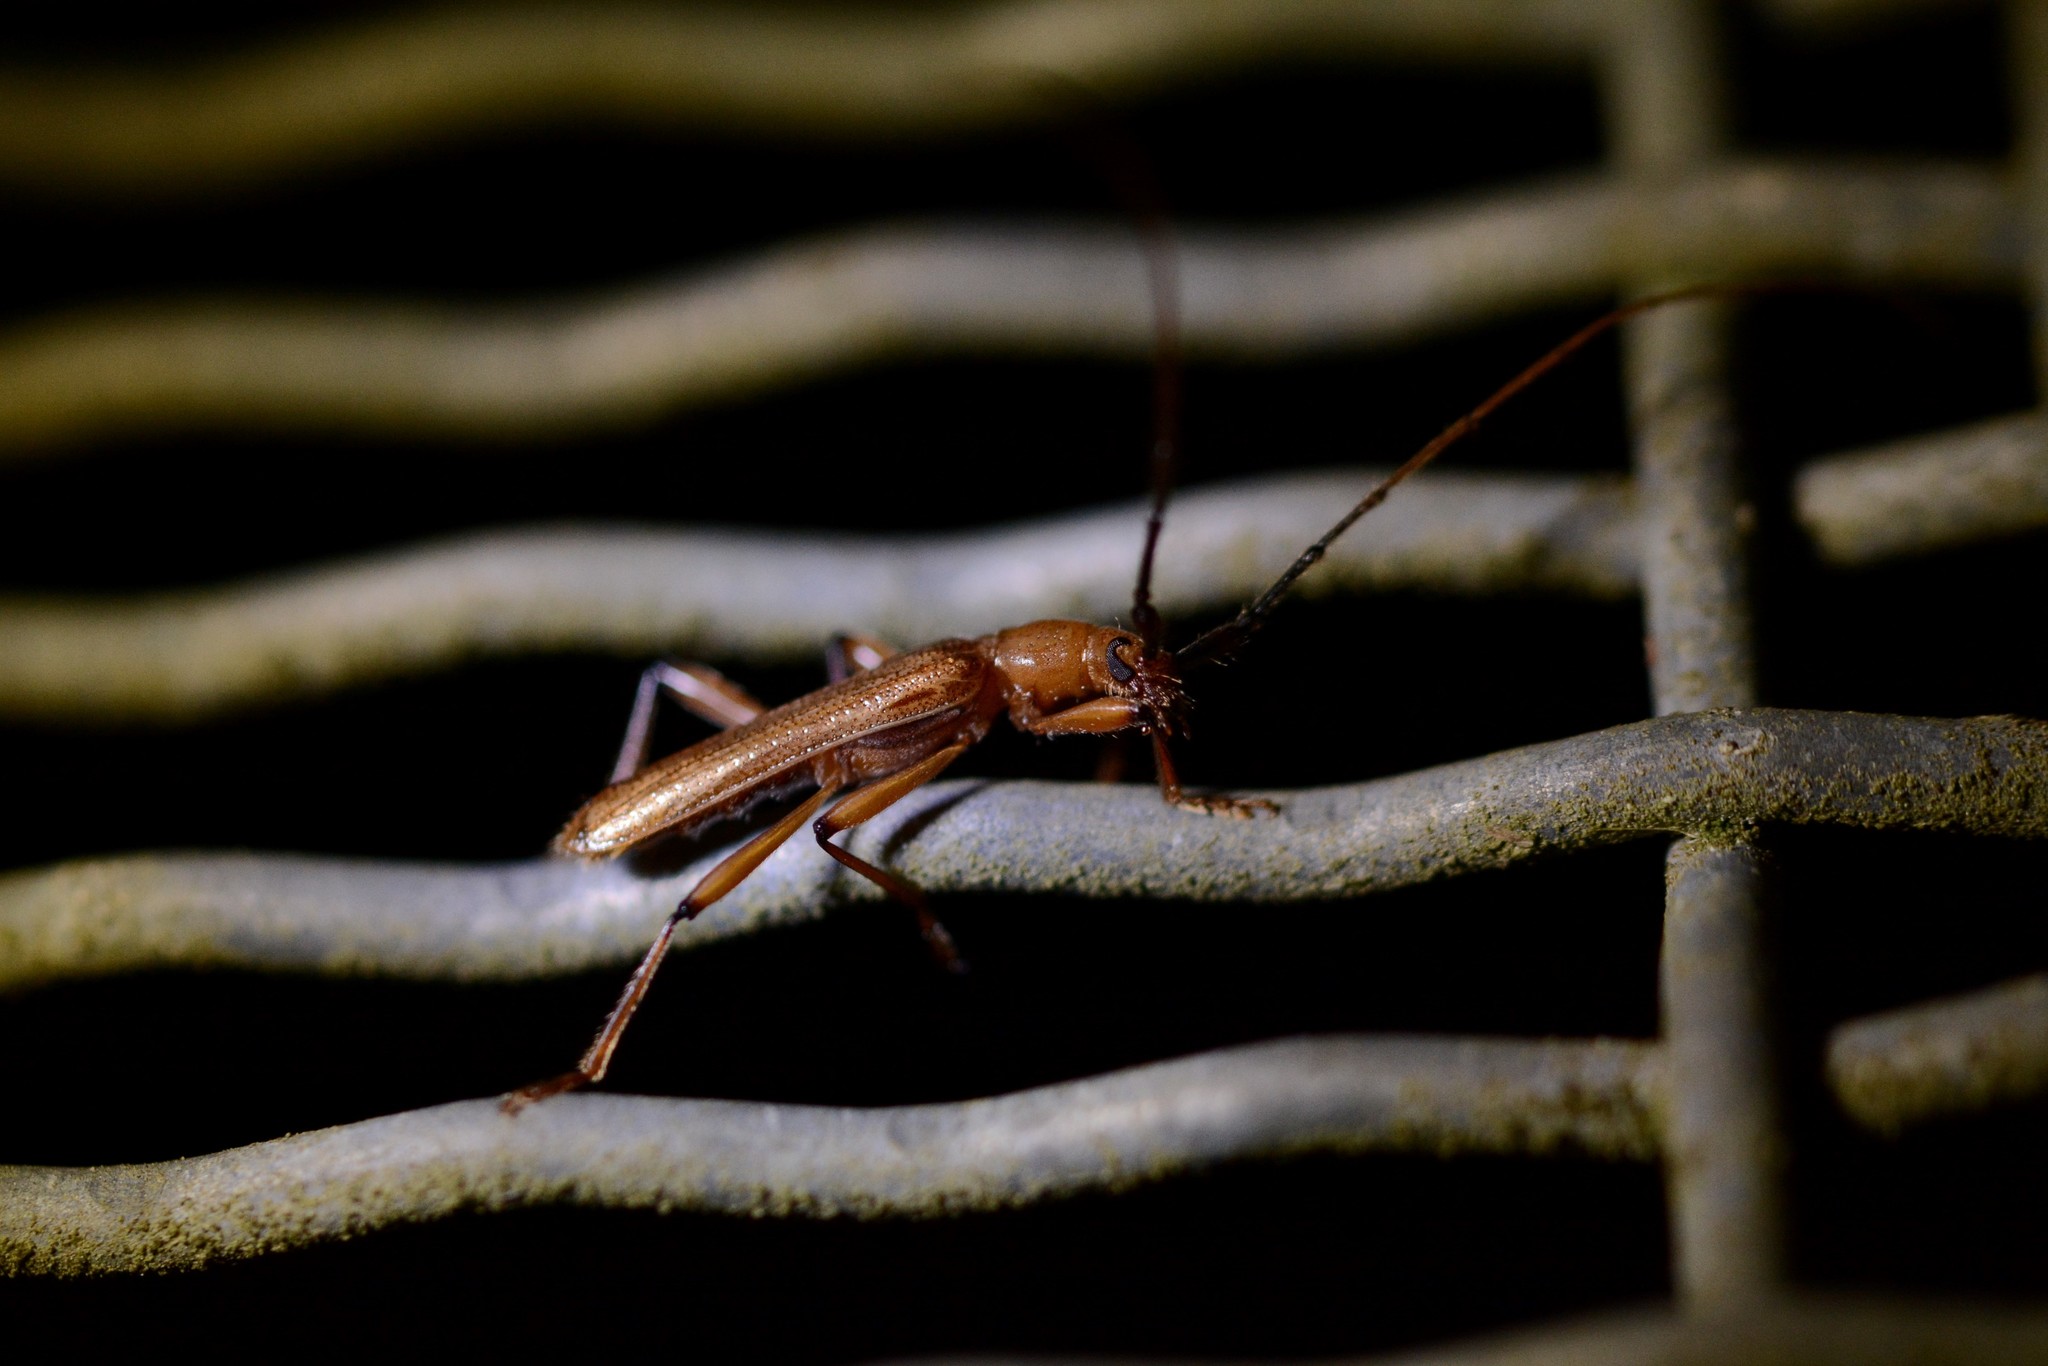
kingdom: Animalia
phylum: Arthropoda
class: Insecta
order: Coleoptera
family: Cerambycidae
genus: Ophryops
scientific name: Ophryops dispar
